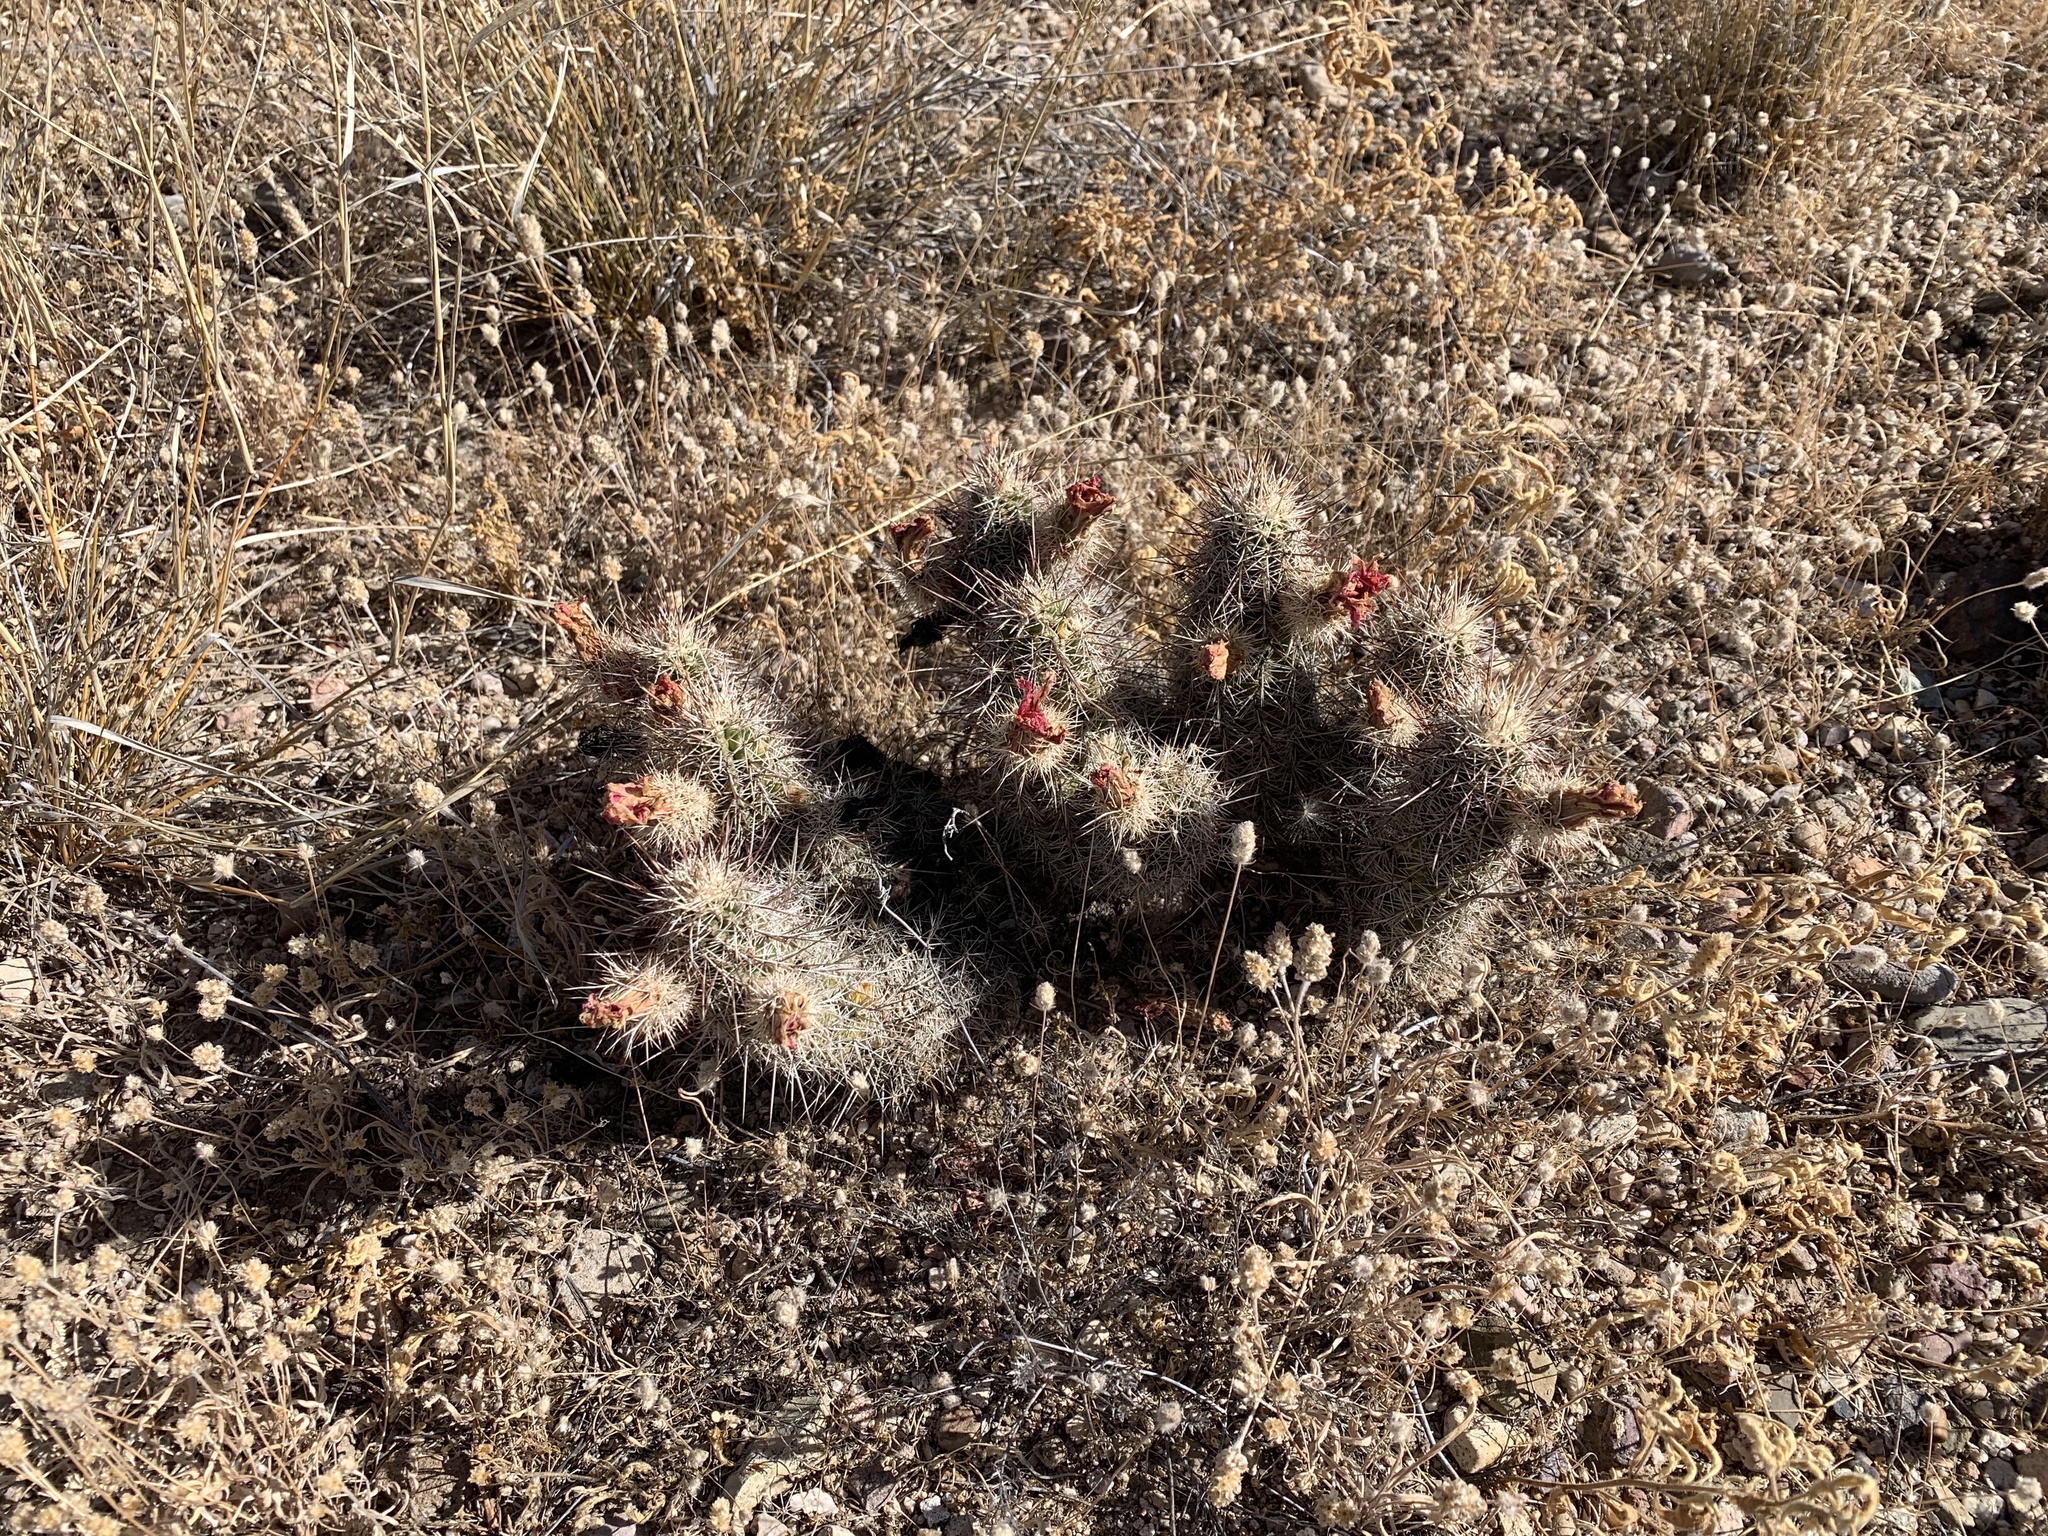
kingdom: Plantae
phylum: Tracheophyta
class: Magnoliopsida
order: Caryophyllales
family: Cactaceae
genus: Echinocereus
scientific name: Echinocereus fasciculatus
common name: Bundle hedgehog
